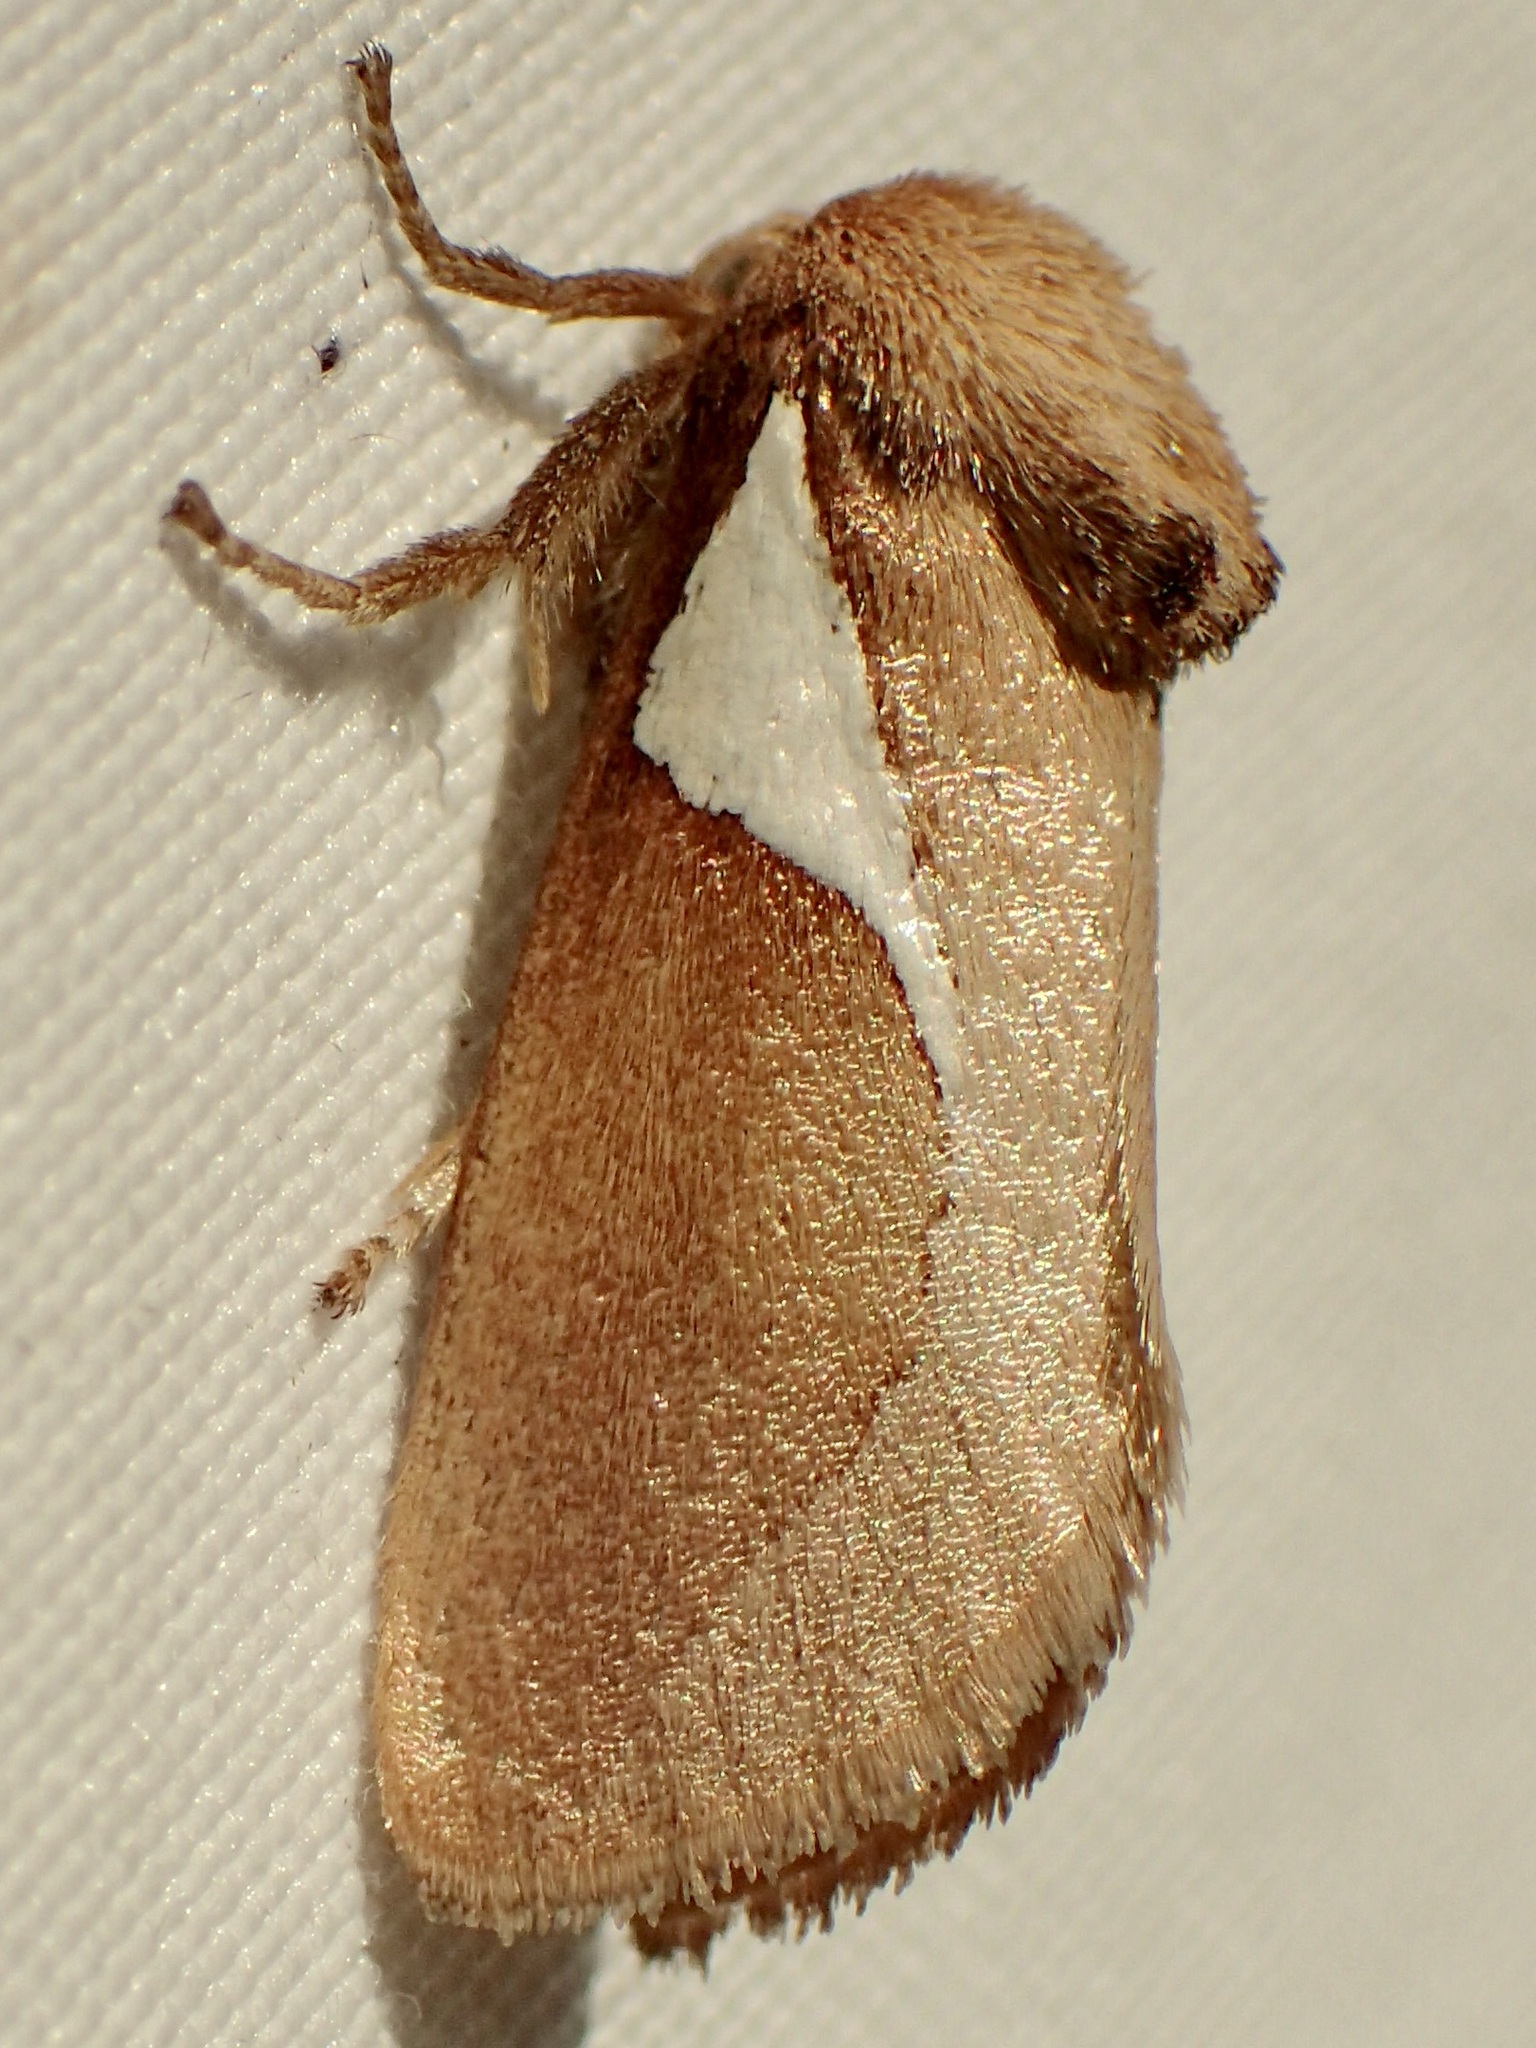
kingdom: Animalia
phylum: Arthropoda
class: Insecta
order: Lepidoptera
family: Limacodidae
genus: Prolimacodes
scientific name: Prolimacodes trigona
